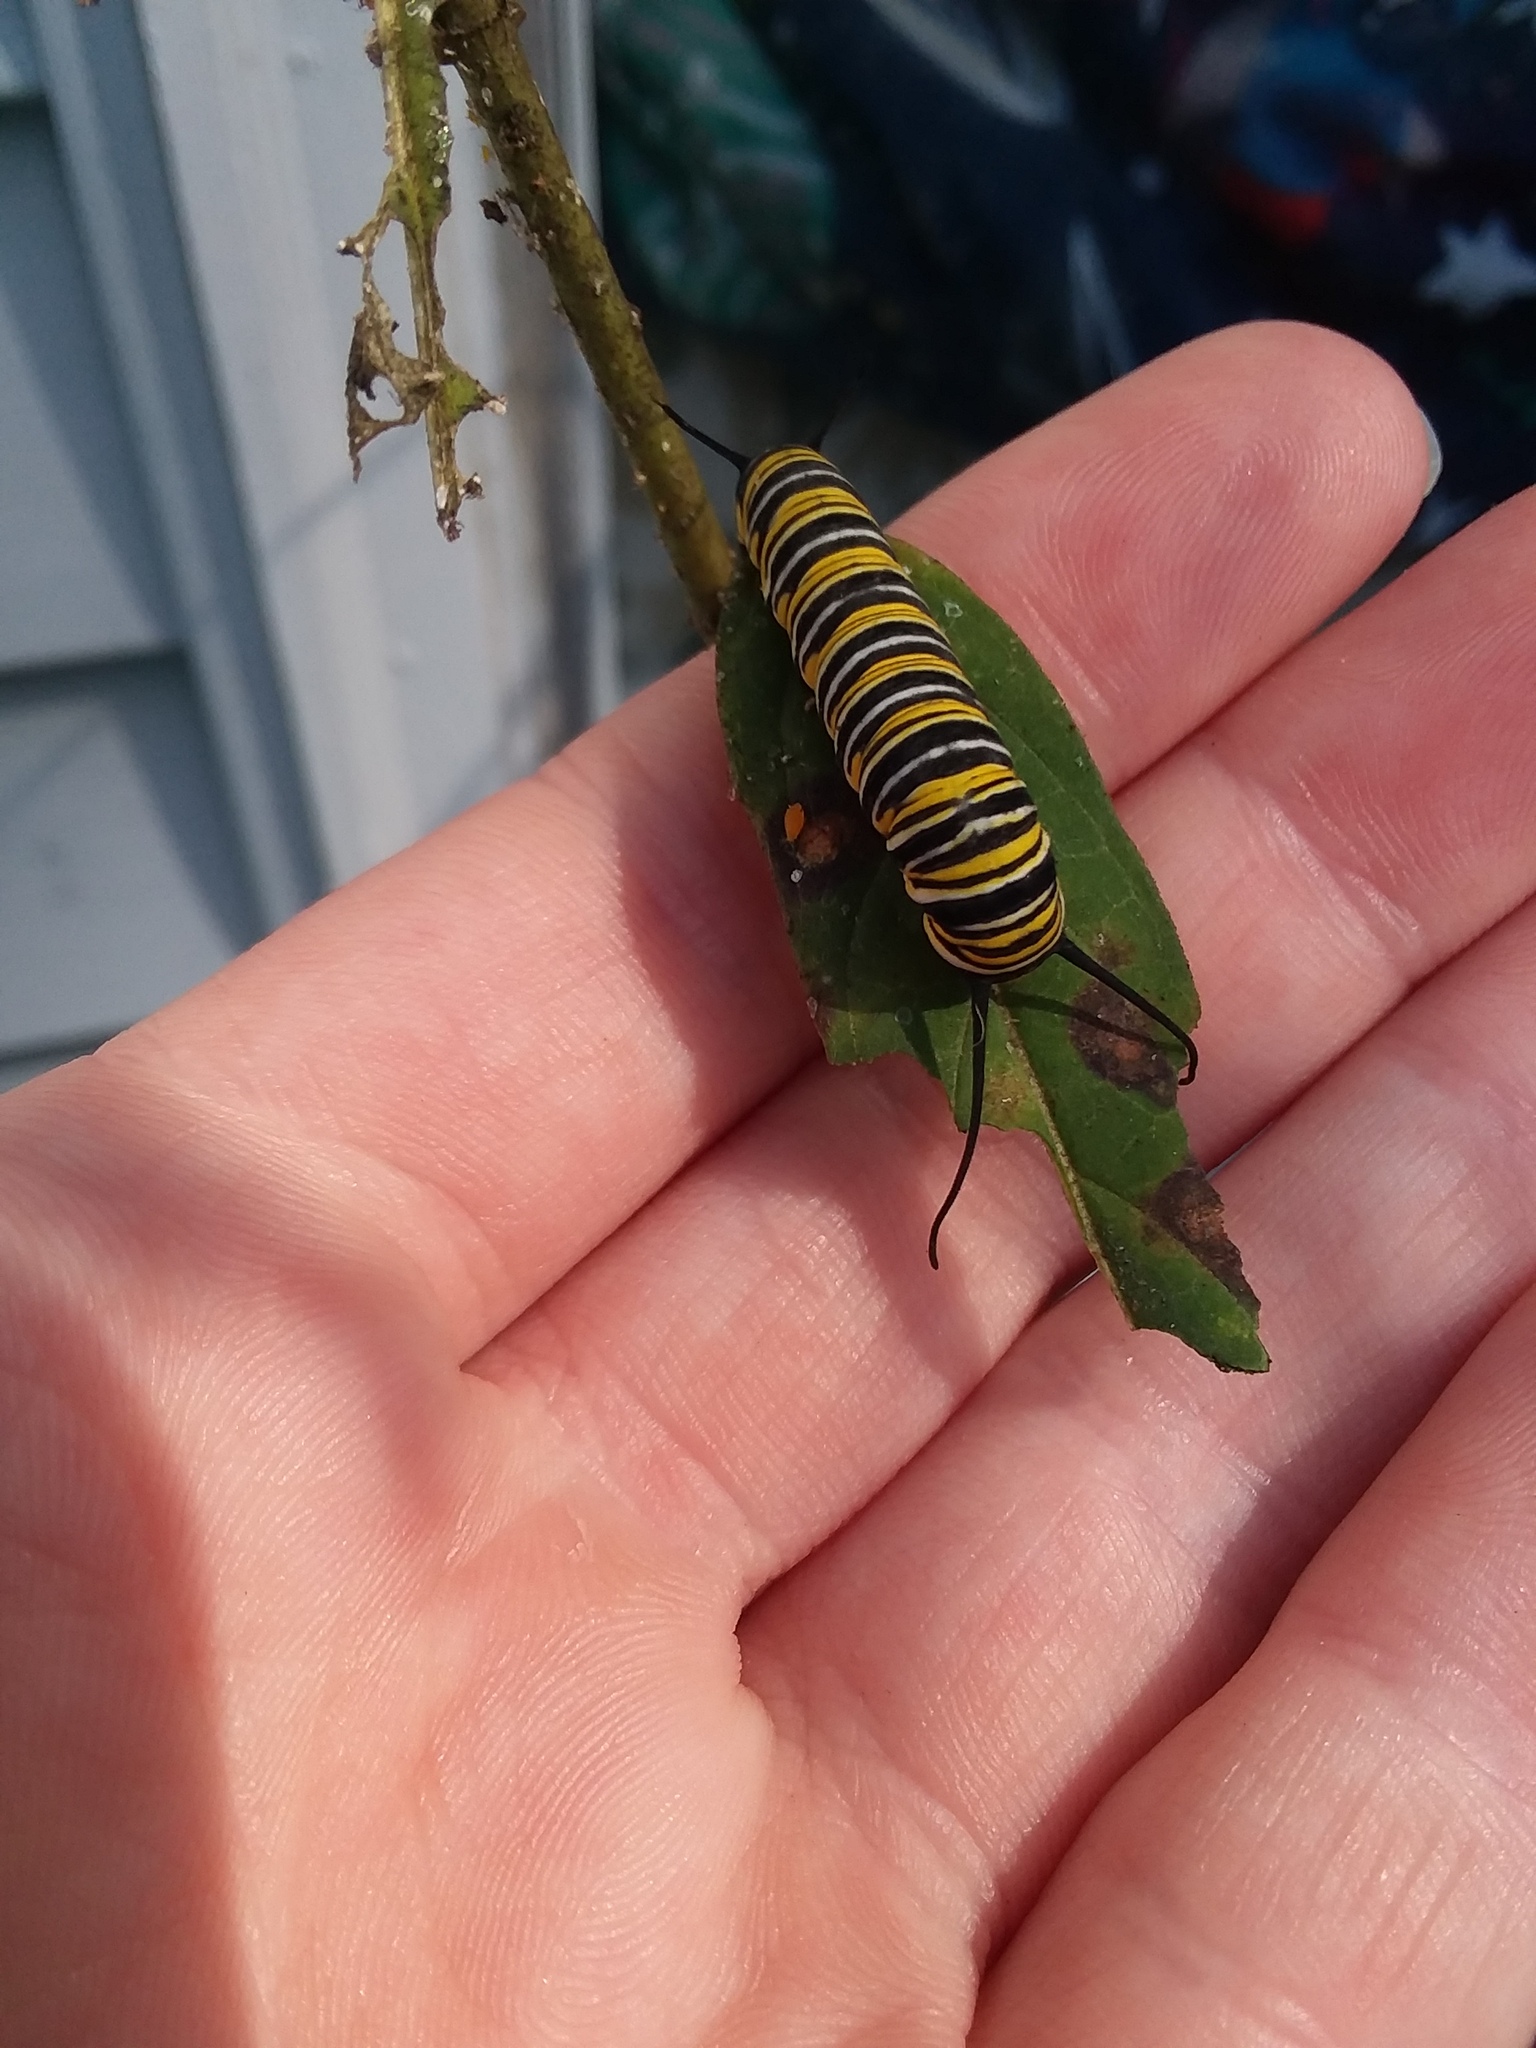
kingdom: Animalia
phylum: Arthropoda
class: Insecta
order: Lepidoptera
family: Nymphalidae
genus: Danaus
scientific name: Danaus plexippus
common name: Monarch
